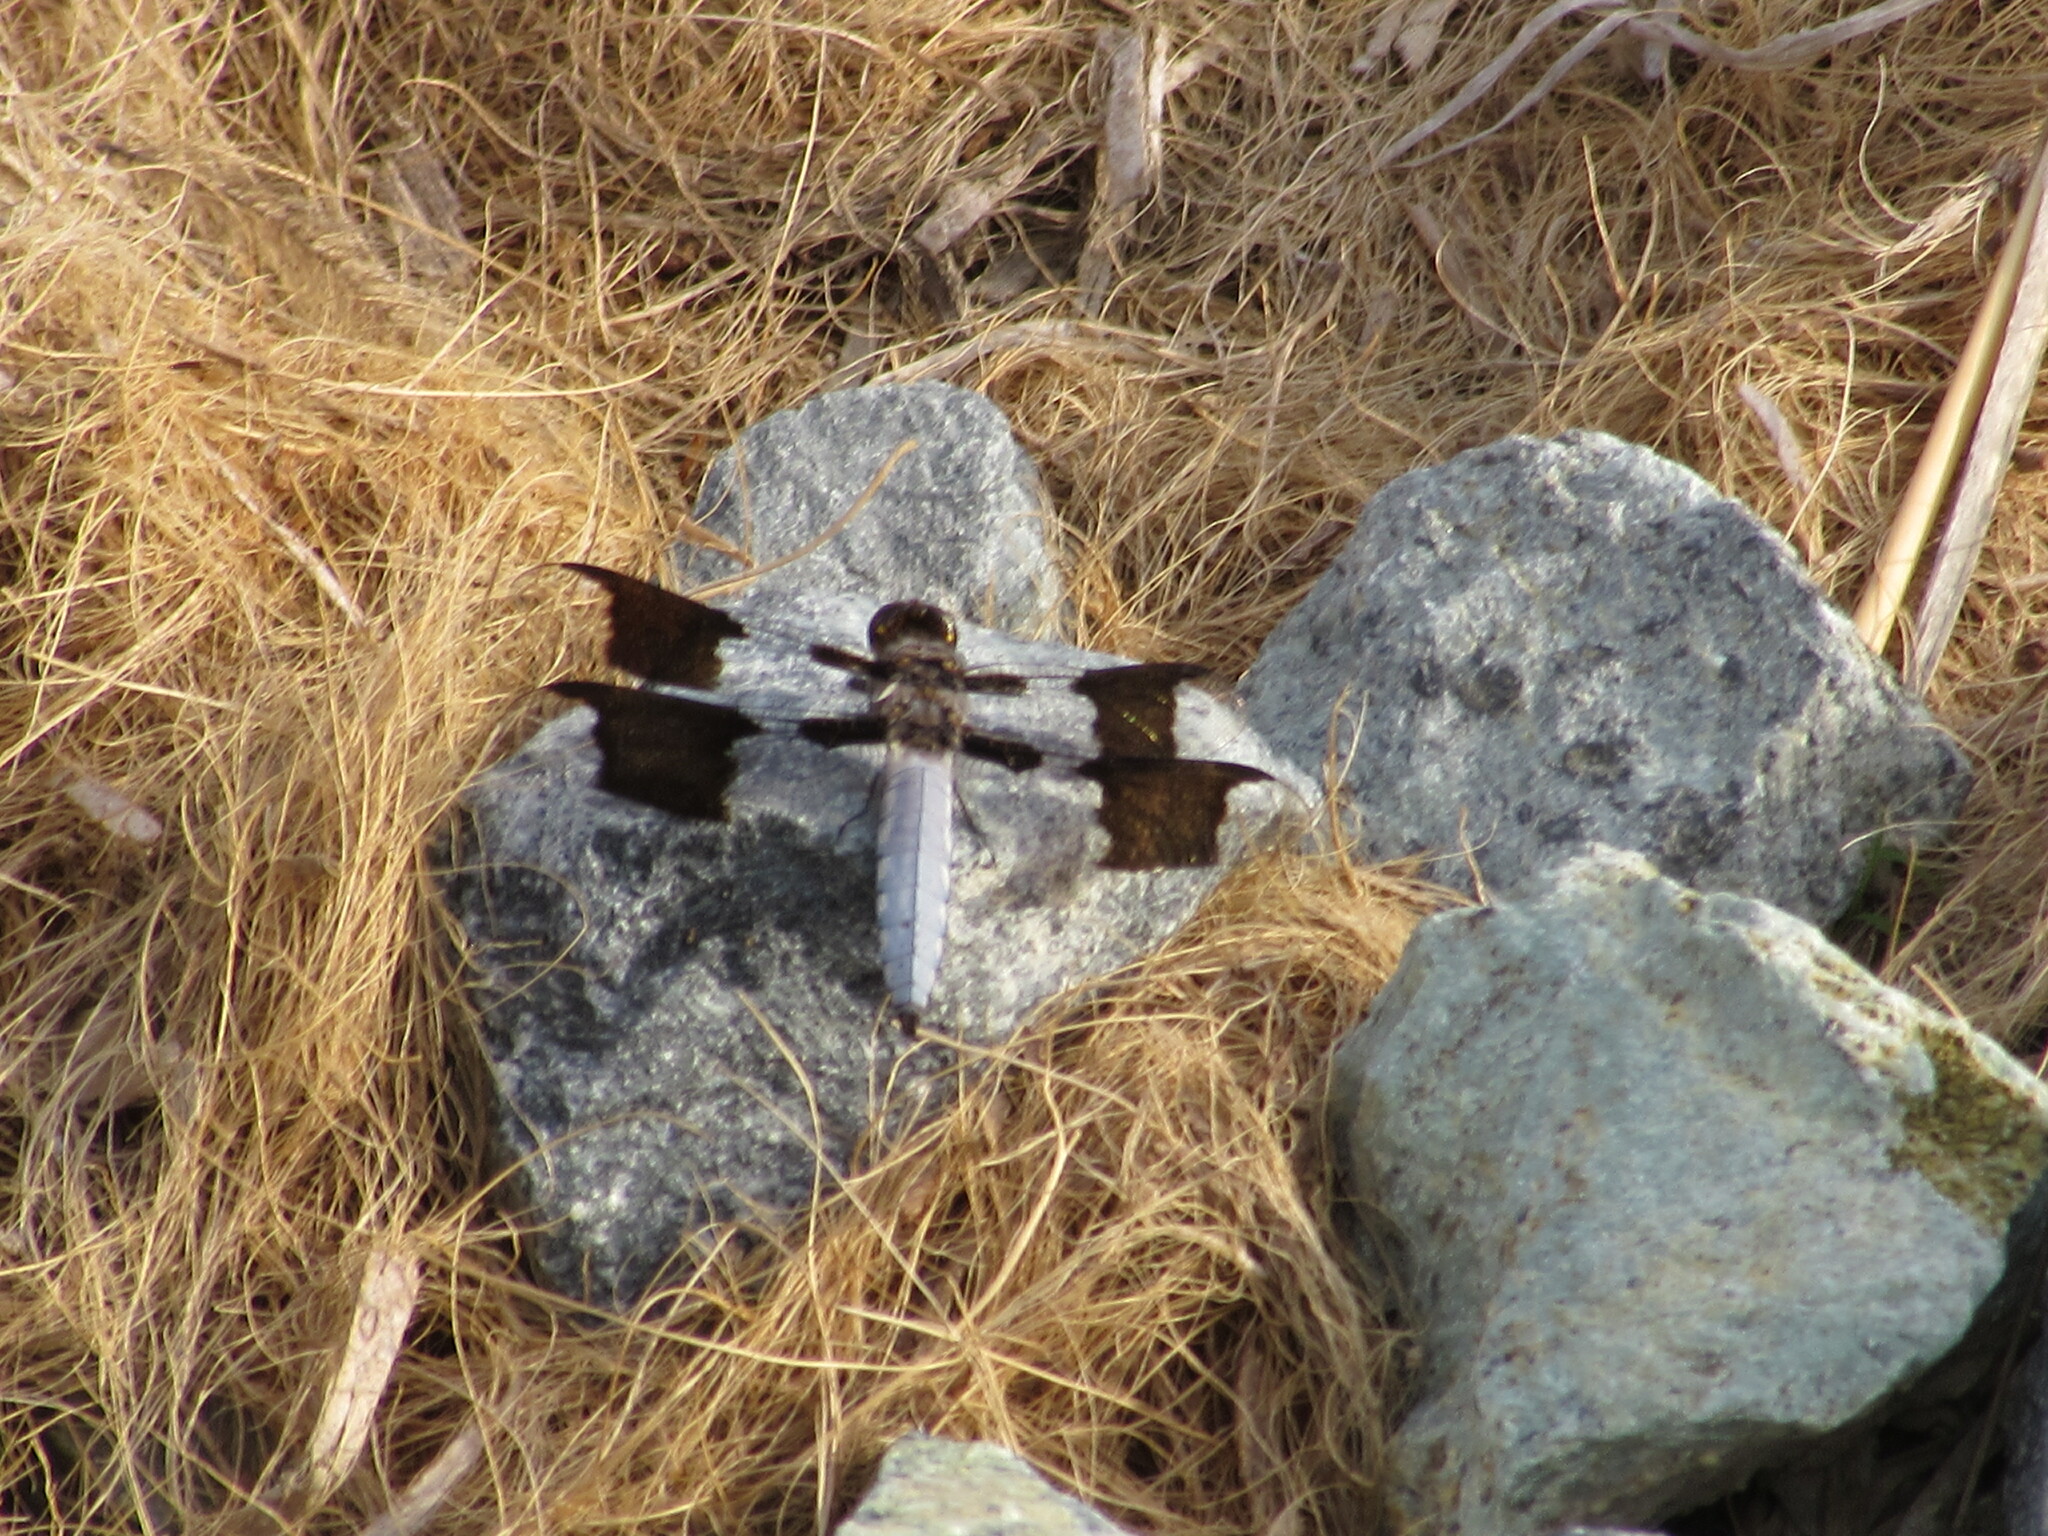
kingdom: Animalia
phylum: Arthropoda
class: Insecta
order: Odonata
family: Libellulidae
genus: Plathemis
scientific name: Plathemis lydia
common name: Common whitetail
